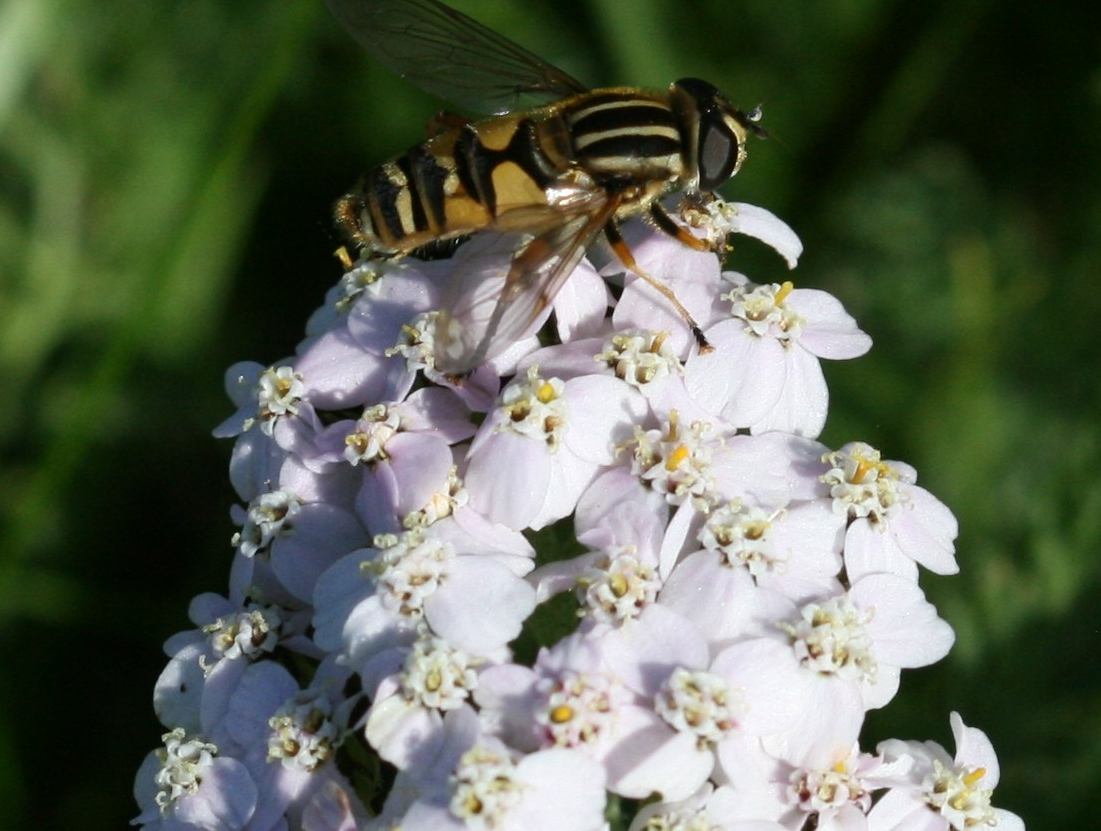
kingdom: Plantae
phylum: Tracheophyta
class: Magnoliopsida
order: Asterales
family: Asteraceae
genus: Achillea
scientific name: Achillea millefolium
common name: Yarrow
